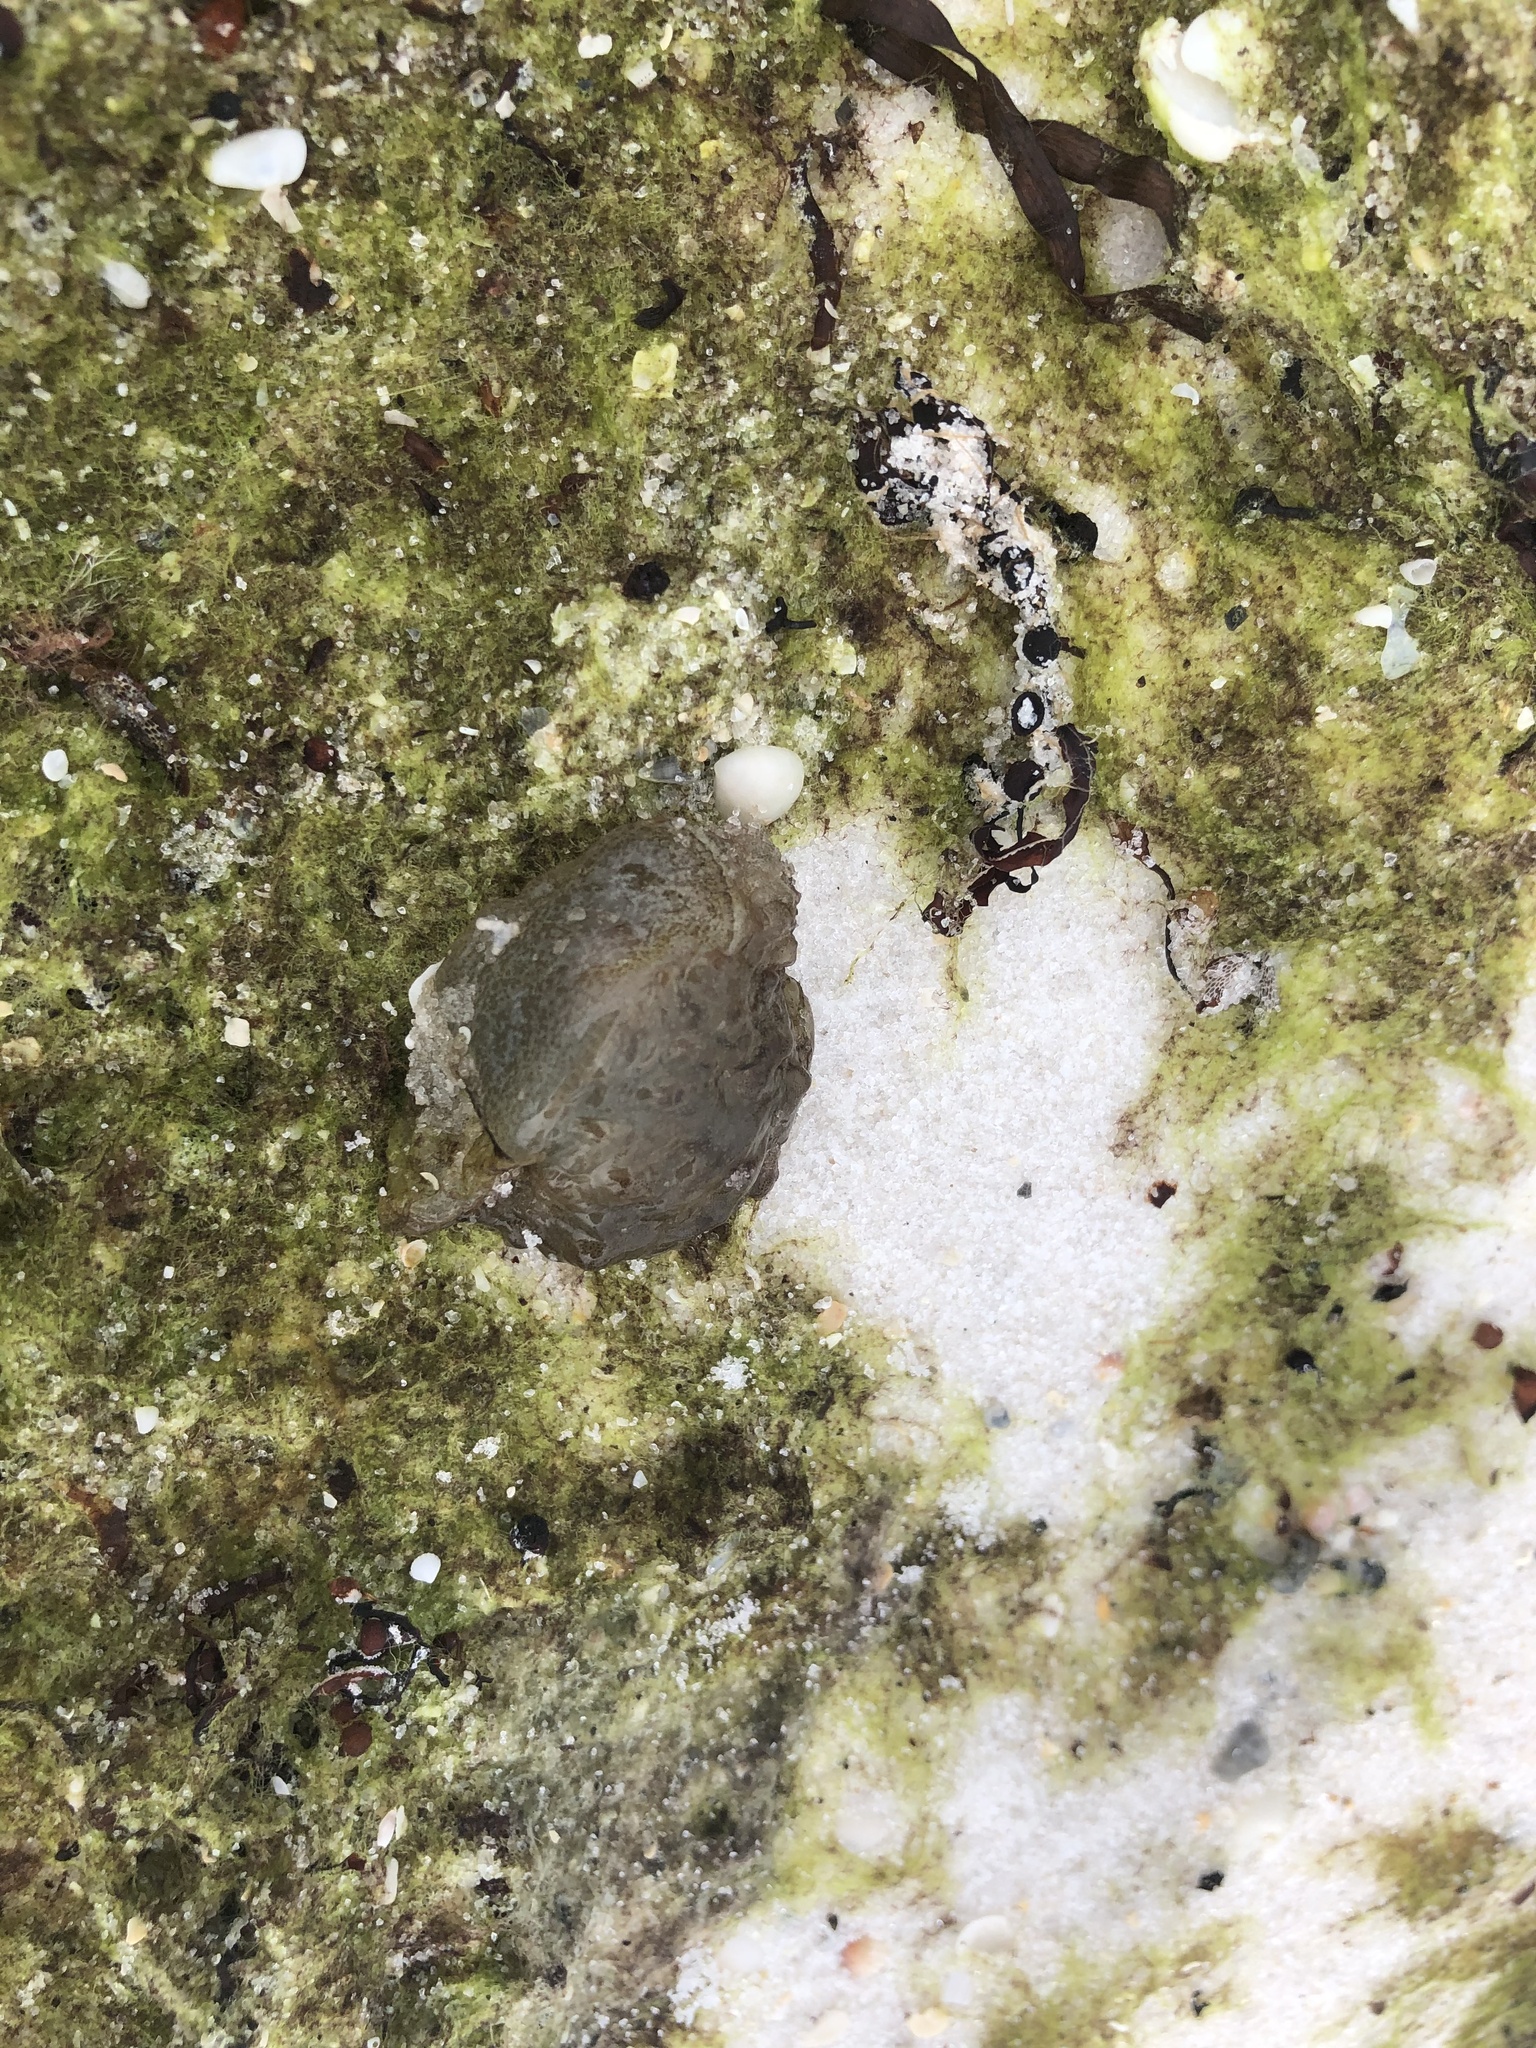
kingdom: Animalia
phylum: Mollusca
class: Gastropoda
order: Aplysiida
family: Aplysiidae
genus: Bursatella
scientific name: Bursatella leachii
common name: Shaggy sea hare
